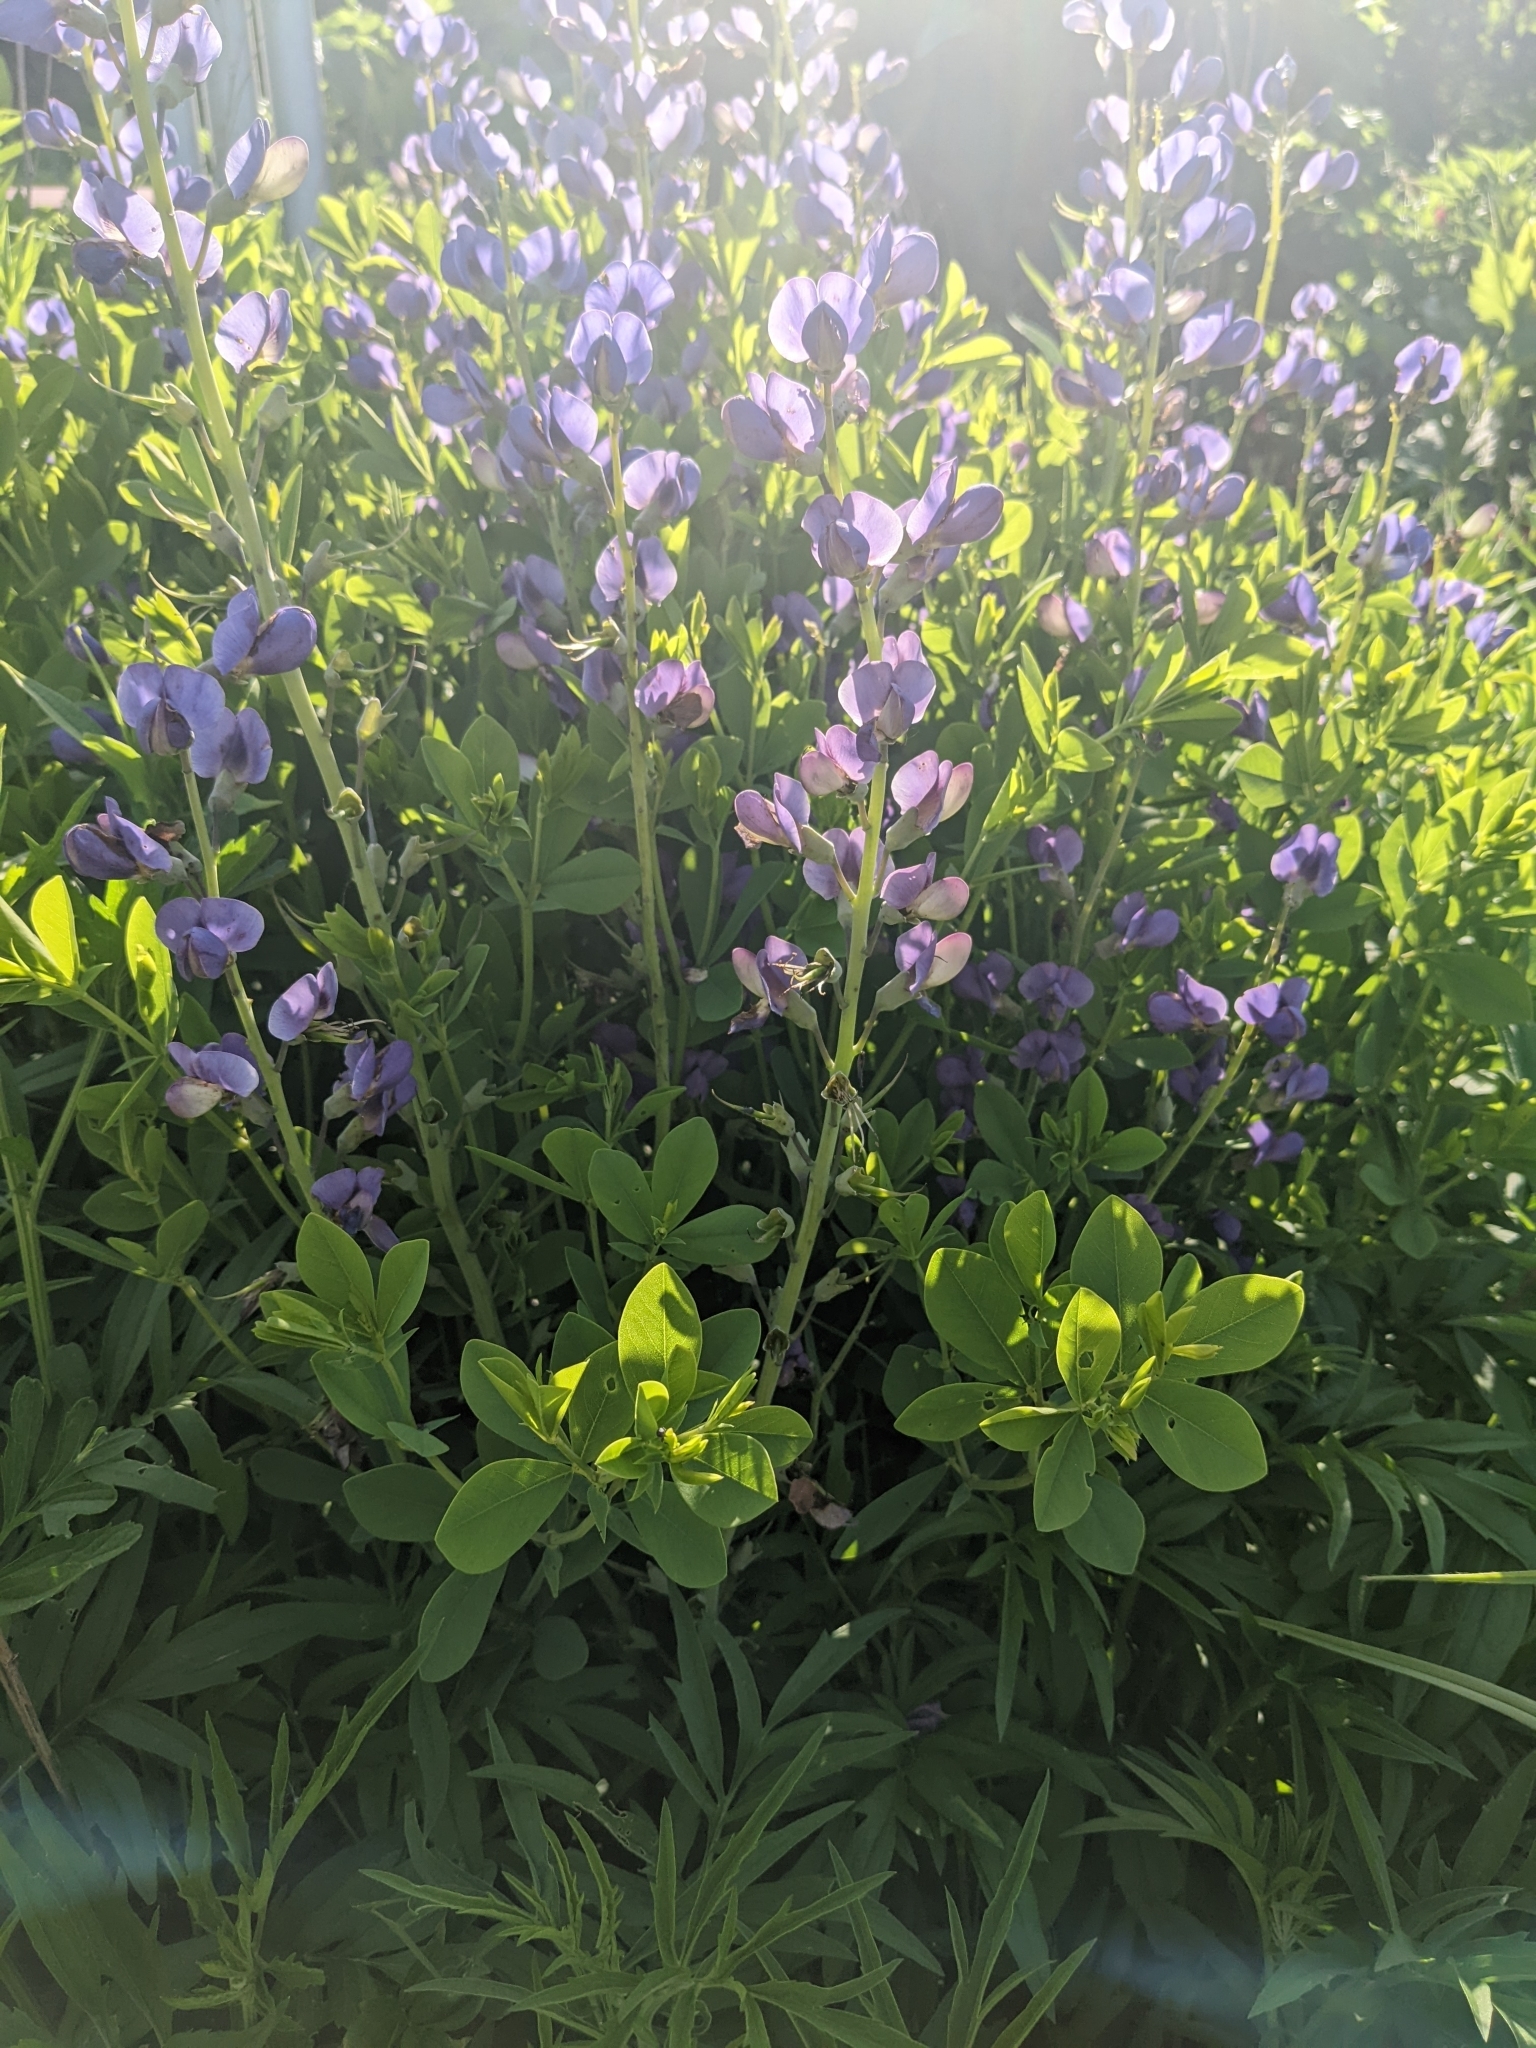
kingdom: Plantae
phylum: Tracheophyta
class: Magnoliopsida
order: Fabales
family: Fabaceae
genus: Baptisia
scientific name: Baptisia australis
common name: Blue false indigo
